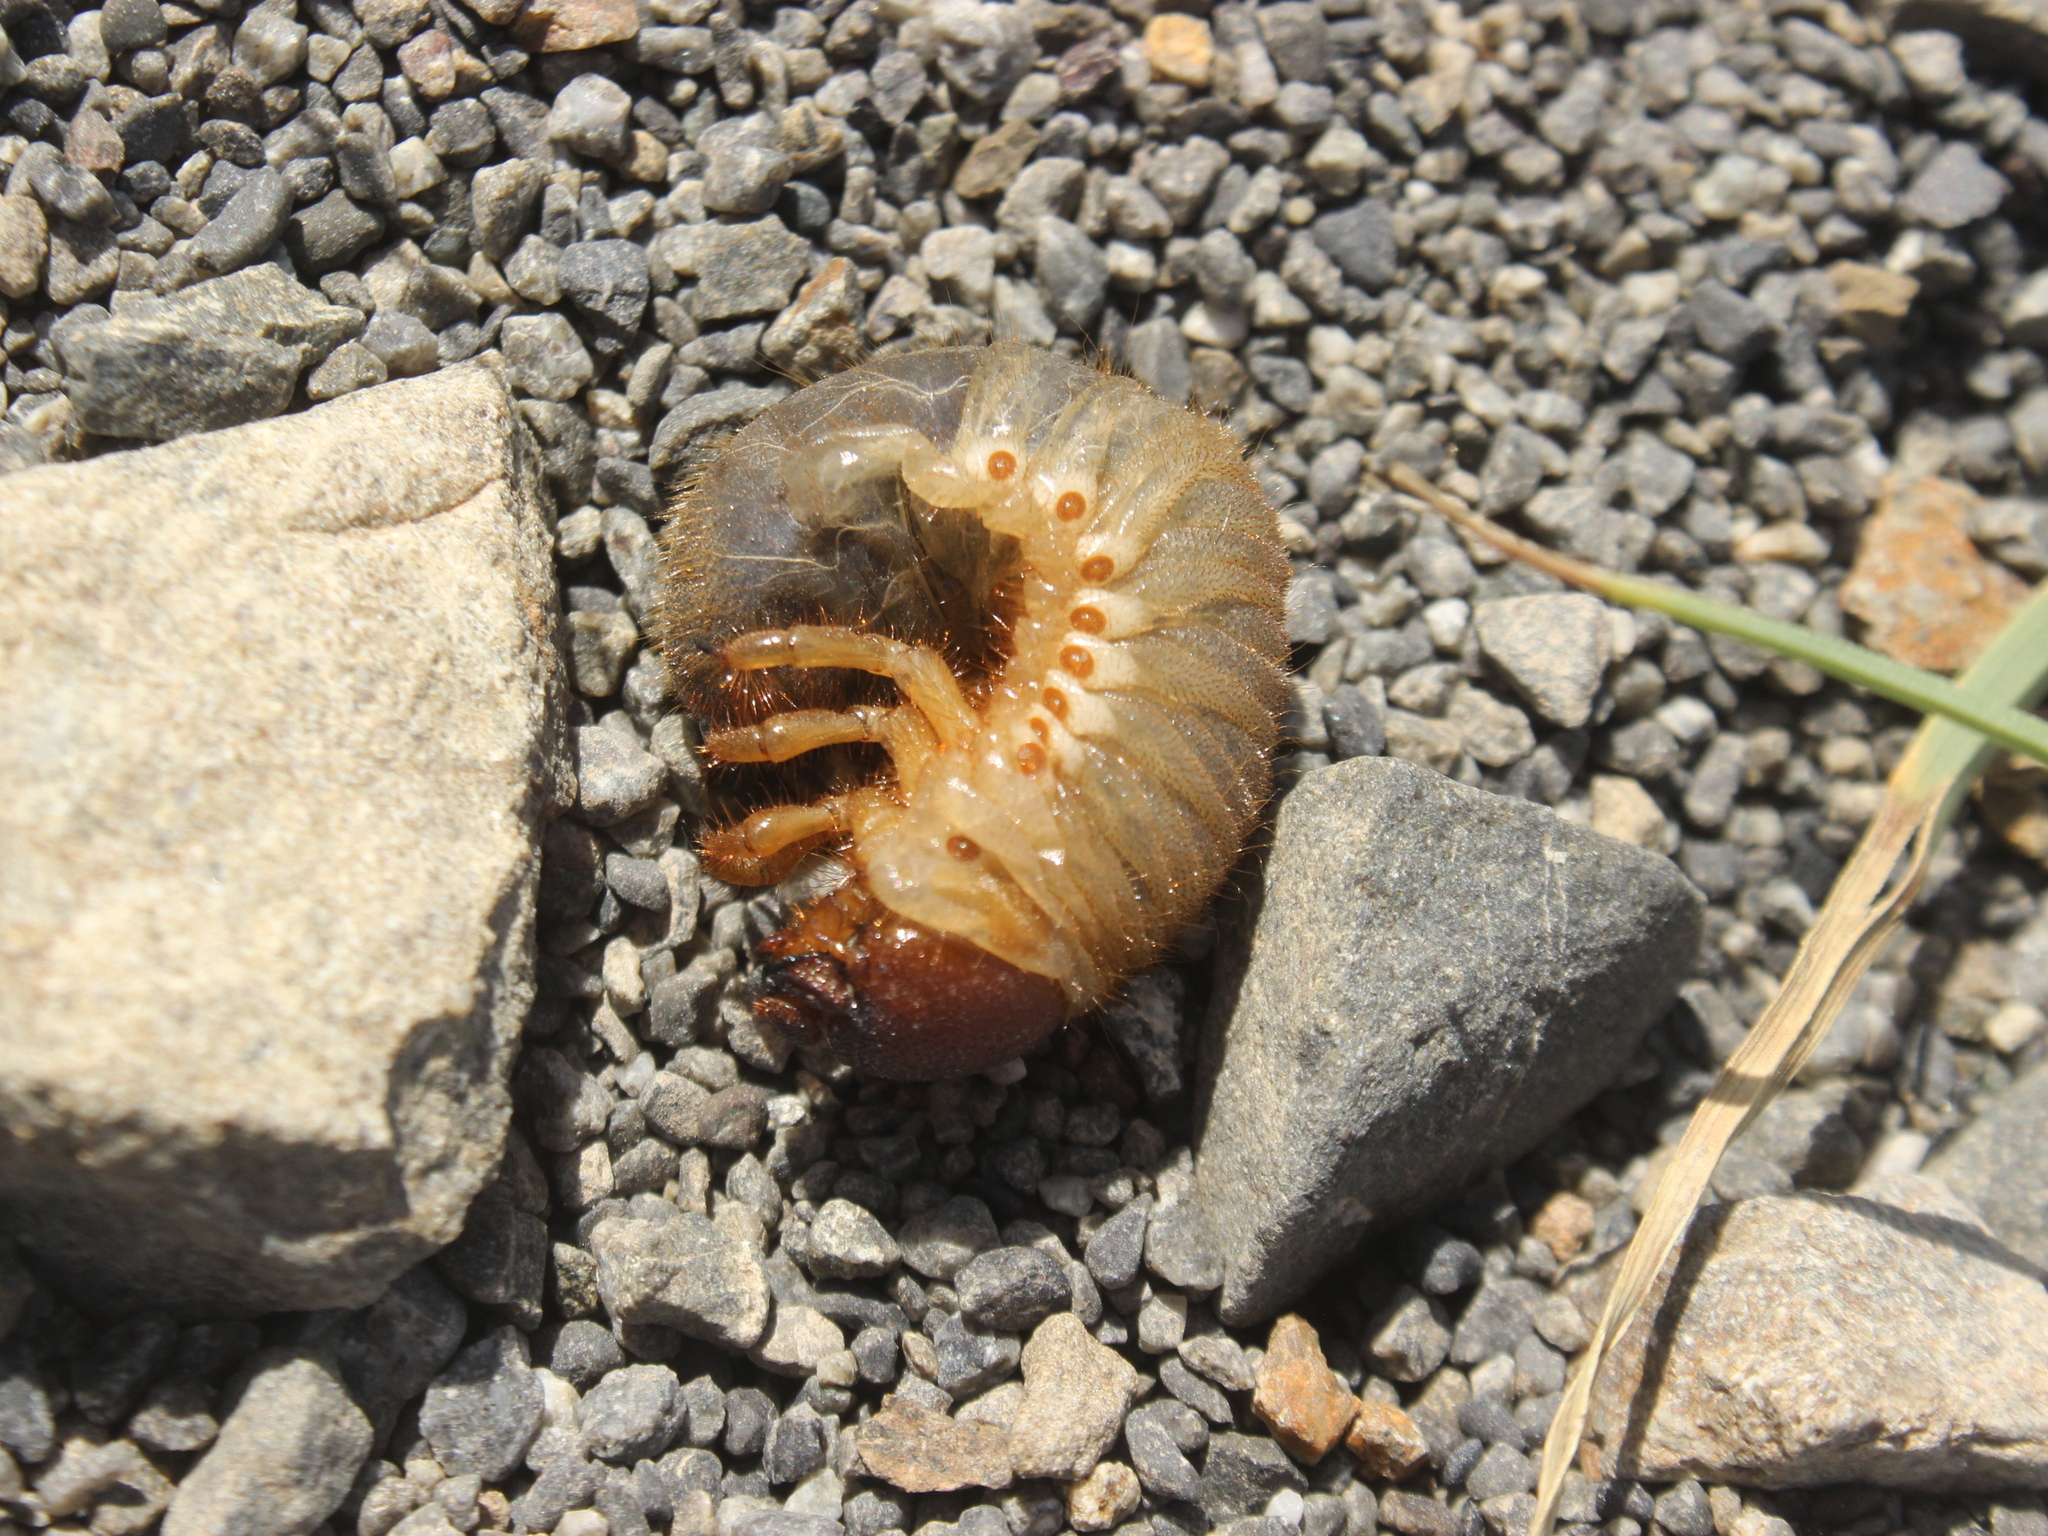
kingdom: Animalia
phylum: Arthropoda
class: Insecta
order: Coleoptera
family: Scarabaeidae
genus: Pericoptus
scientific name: Pericoptus truncatus
